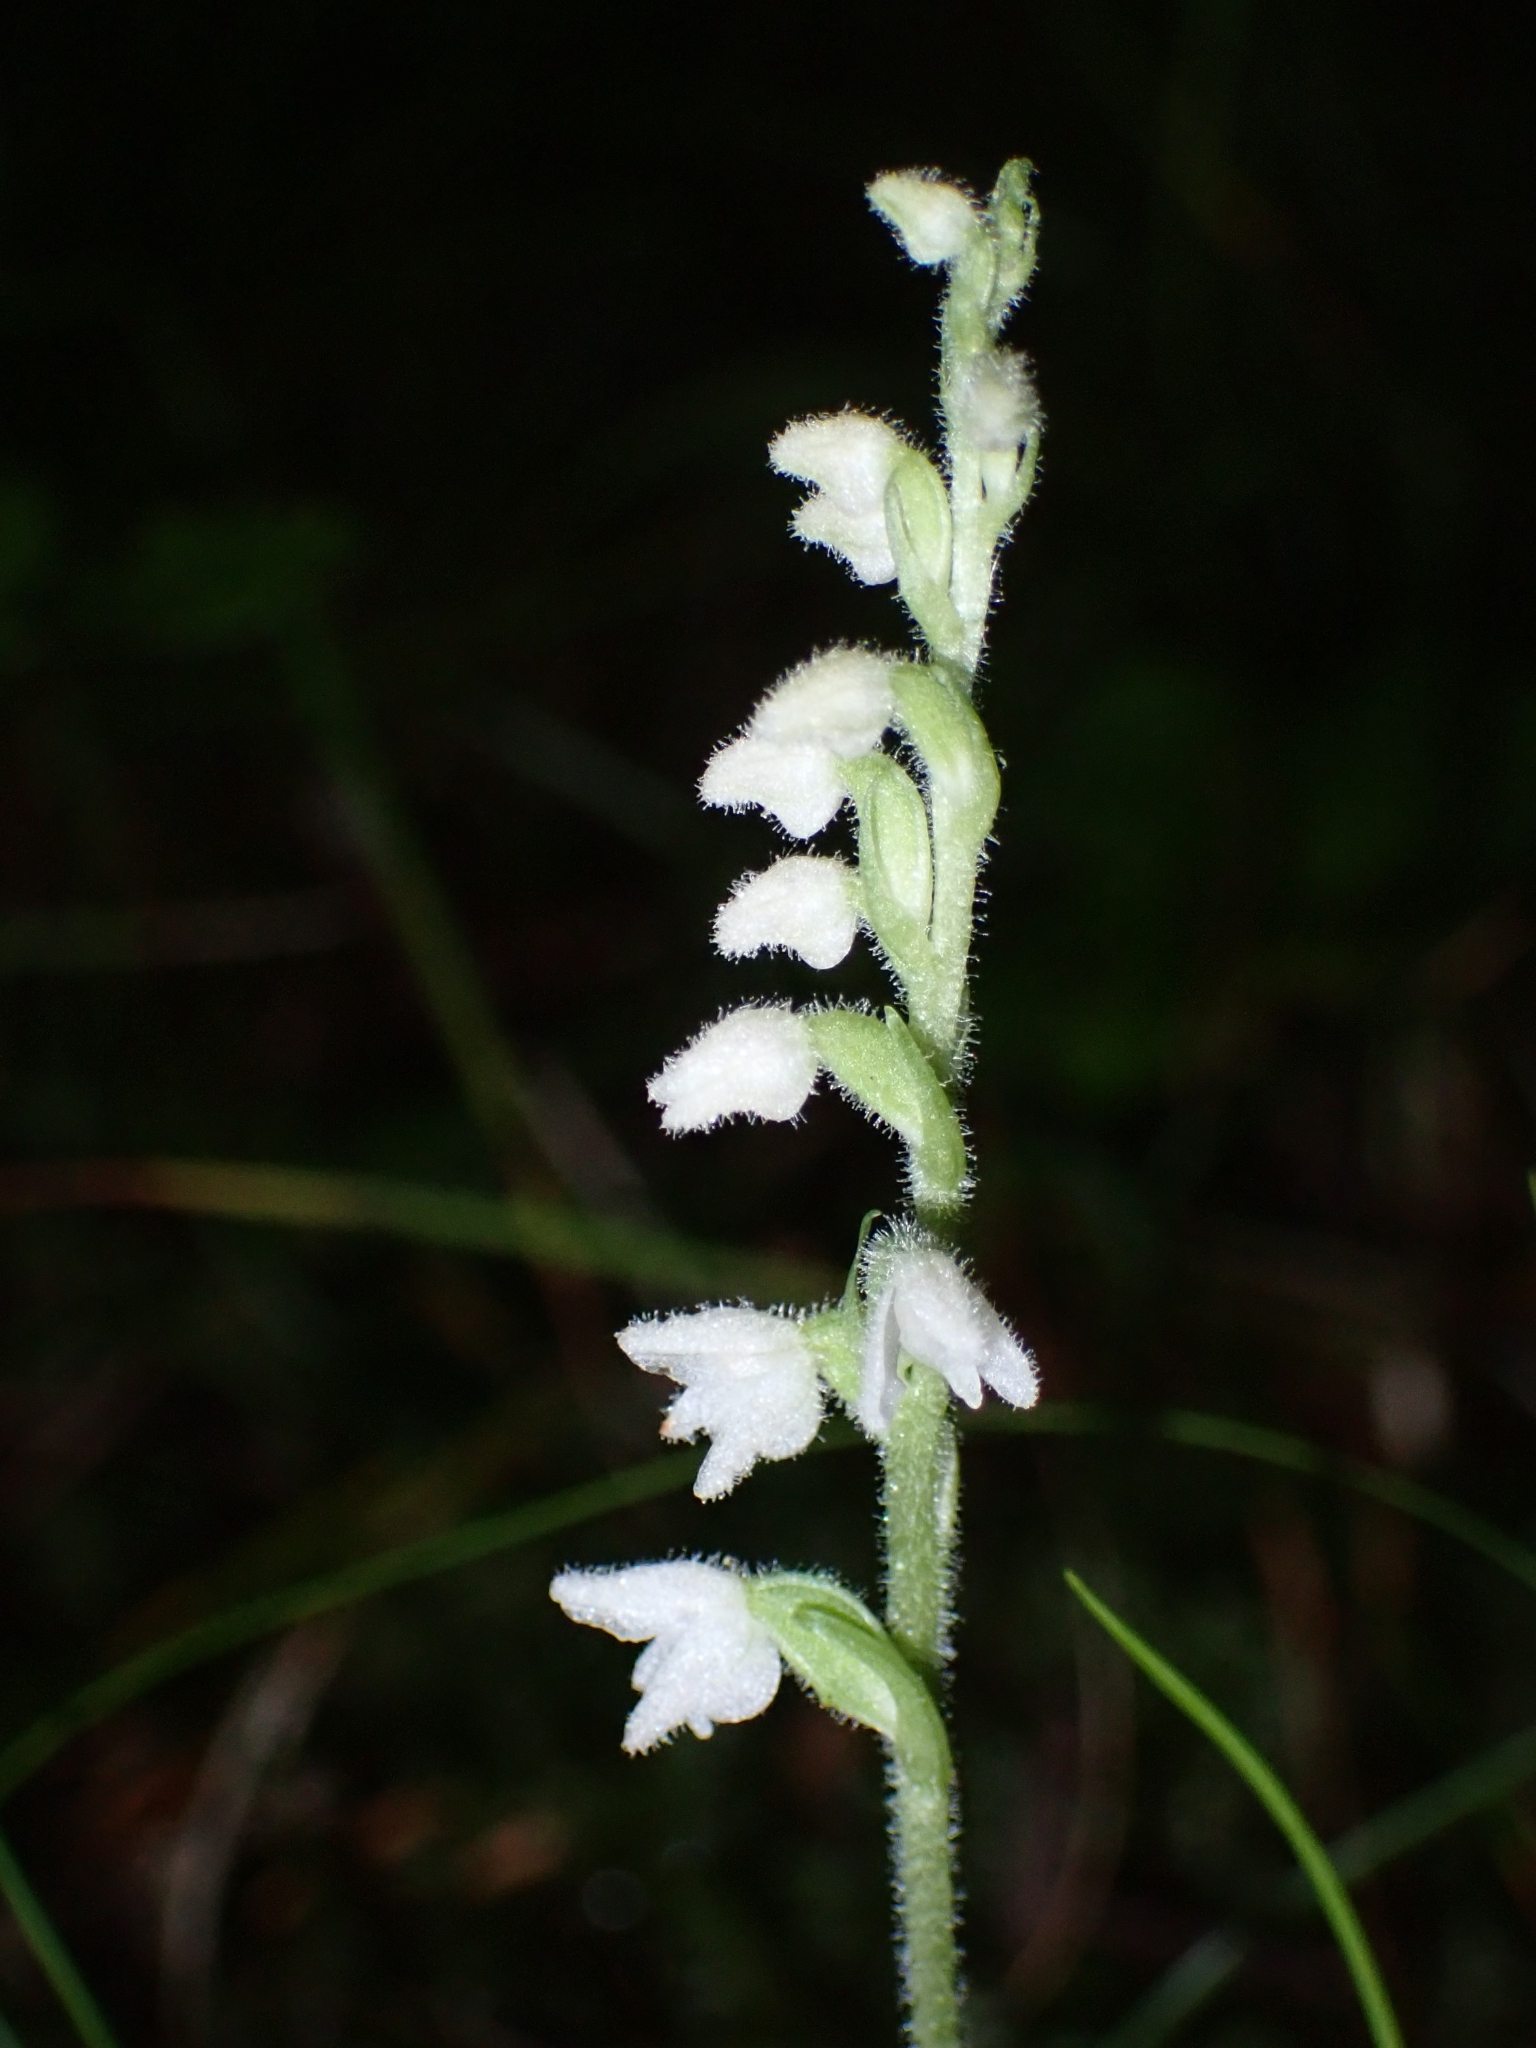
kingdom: Plantae
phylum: Tracheophyta
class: Liliopsida
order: Asparagales
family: Orchidaceae
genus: Goodyera
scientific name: Goodyera repens
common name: Creeping lady's-tresses
